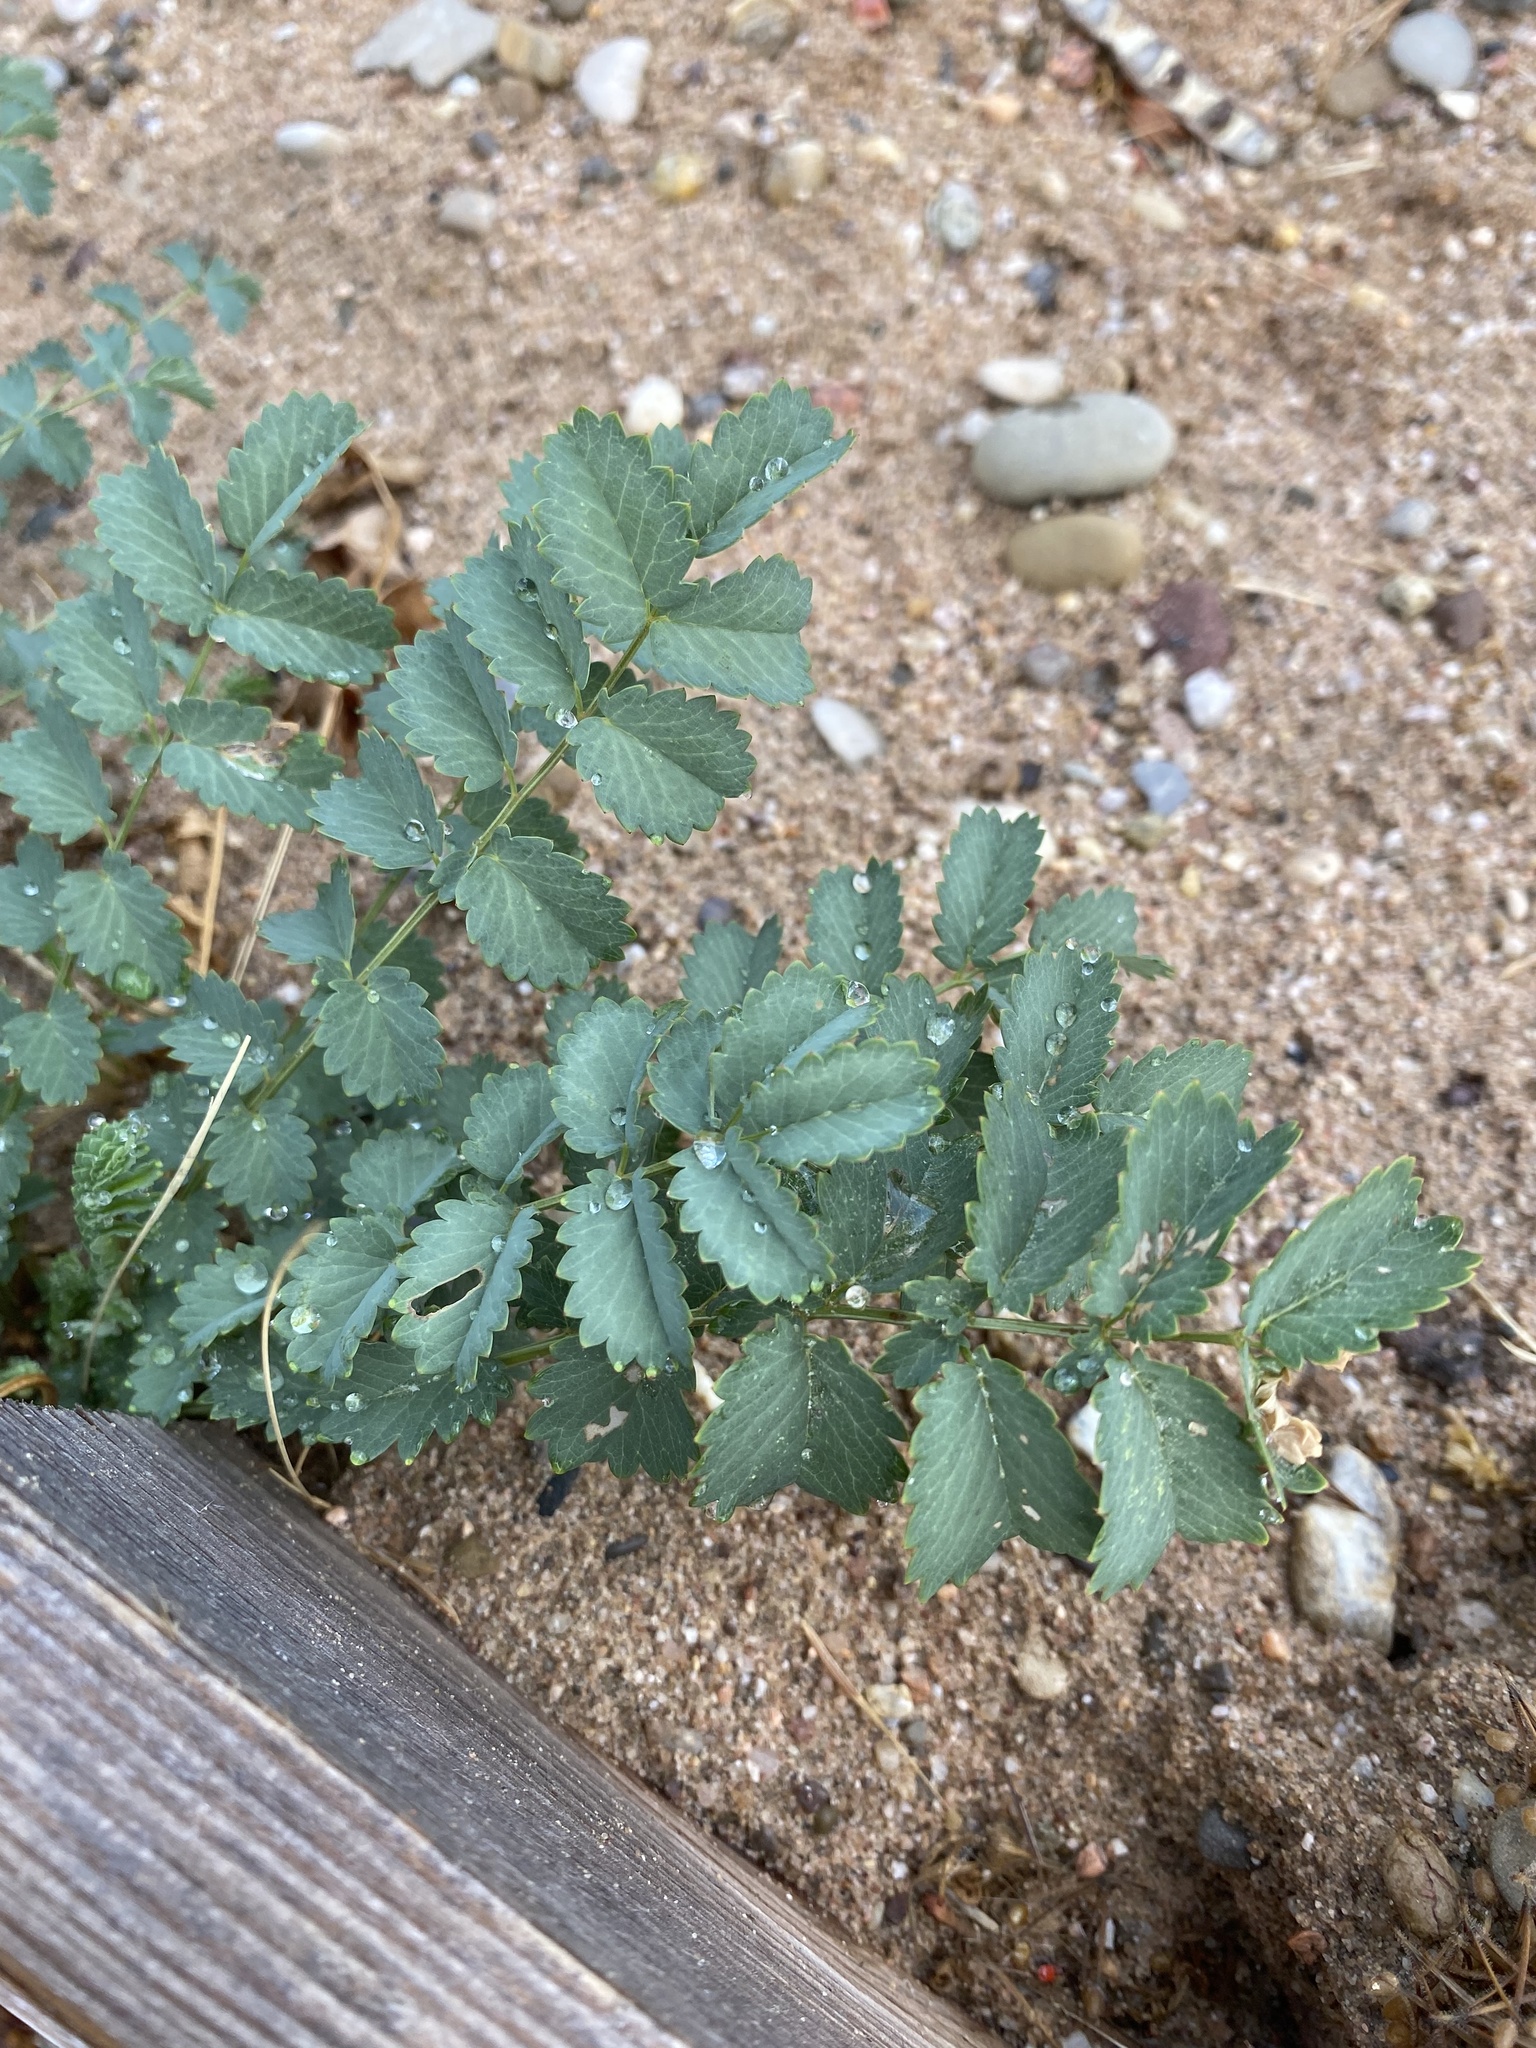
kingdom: Plantae
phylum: Tracheophyta
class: Magnoliopsida
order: Rosales
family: Rosaceae
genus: Poterium
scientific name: Poterium sanguisorba
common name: Salad burnet
